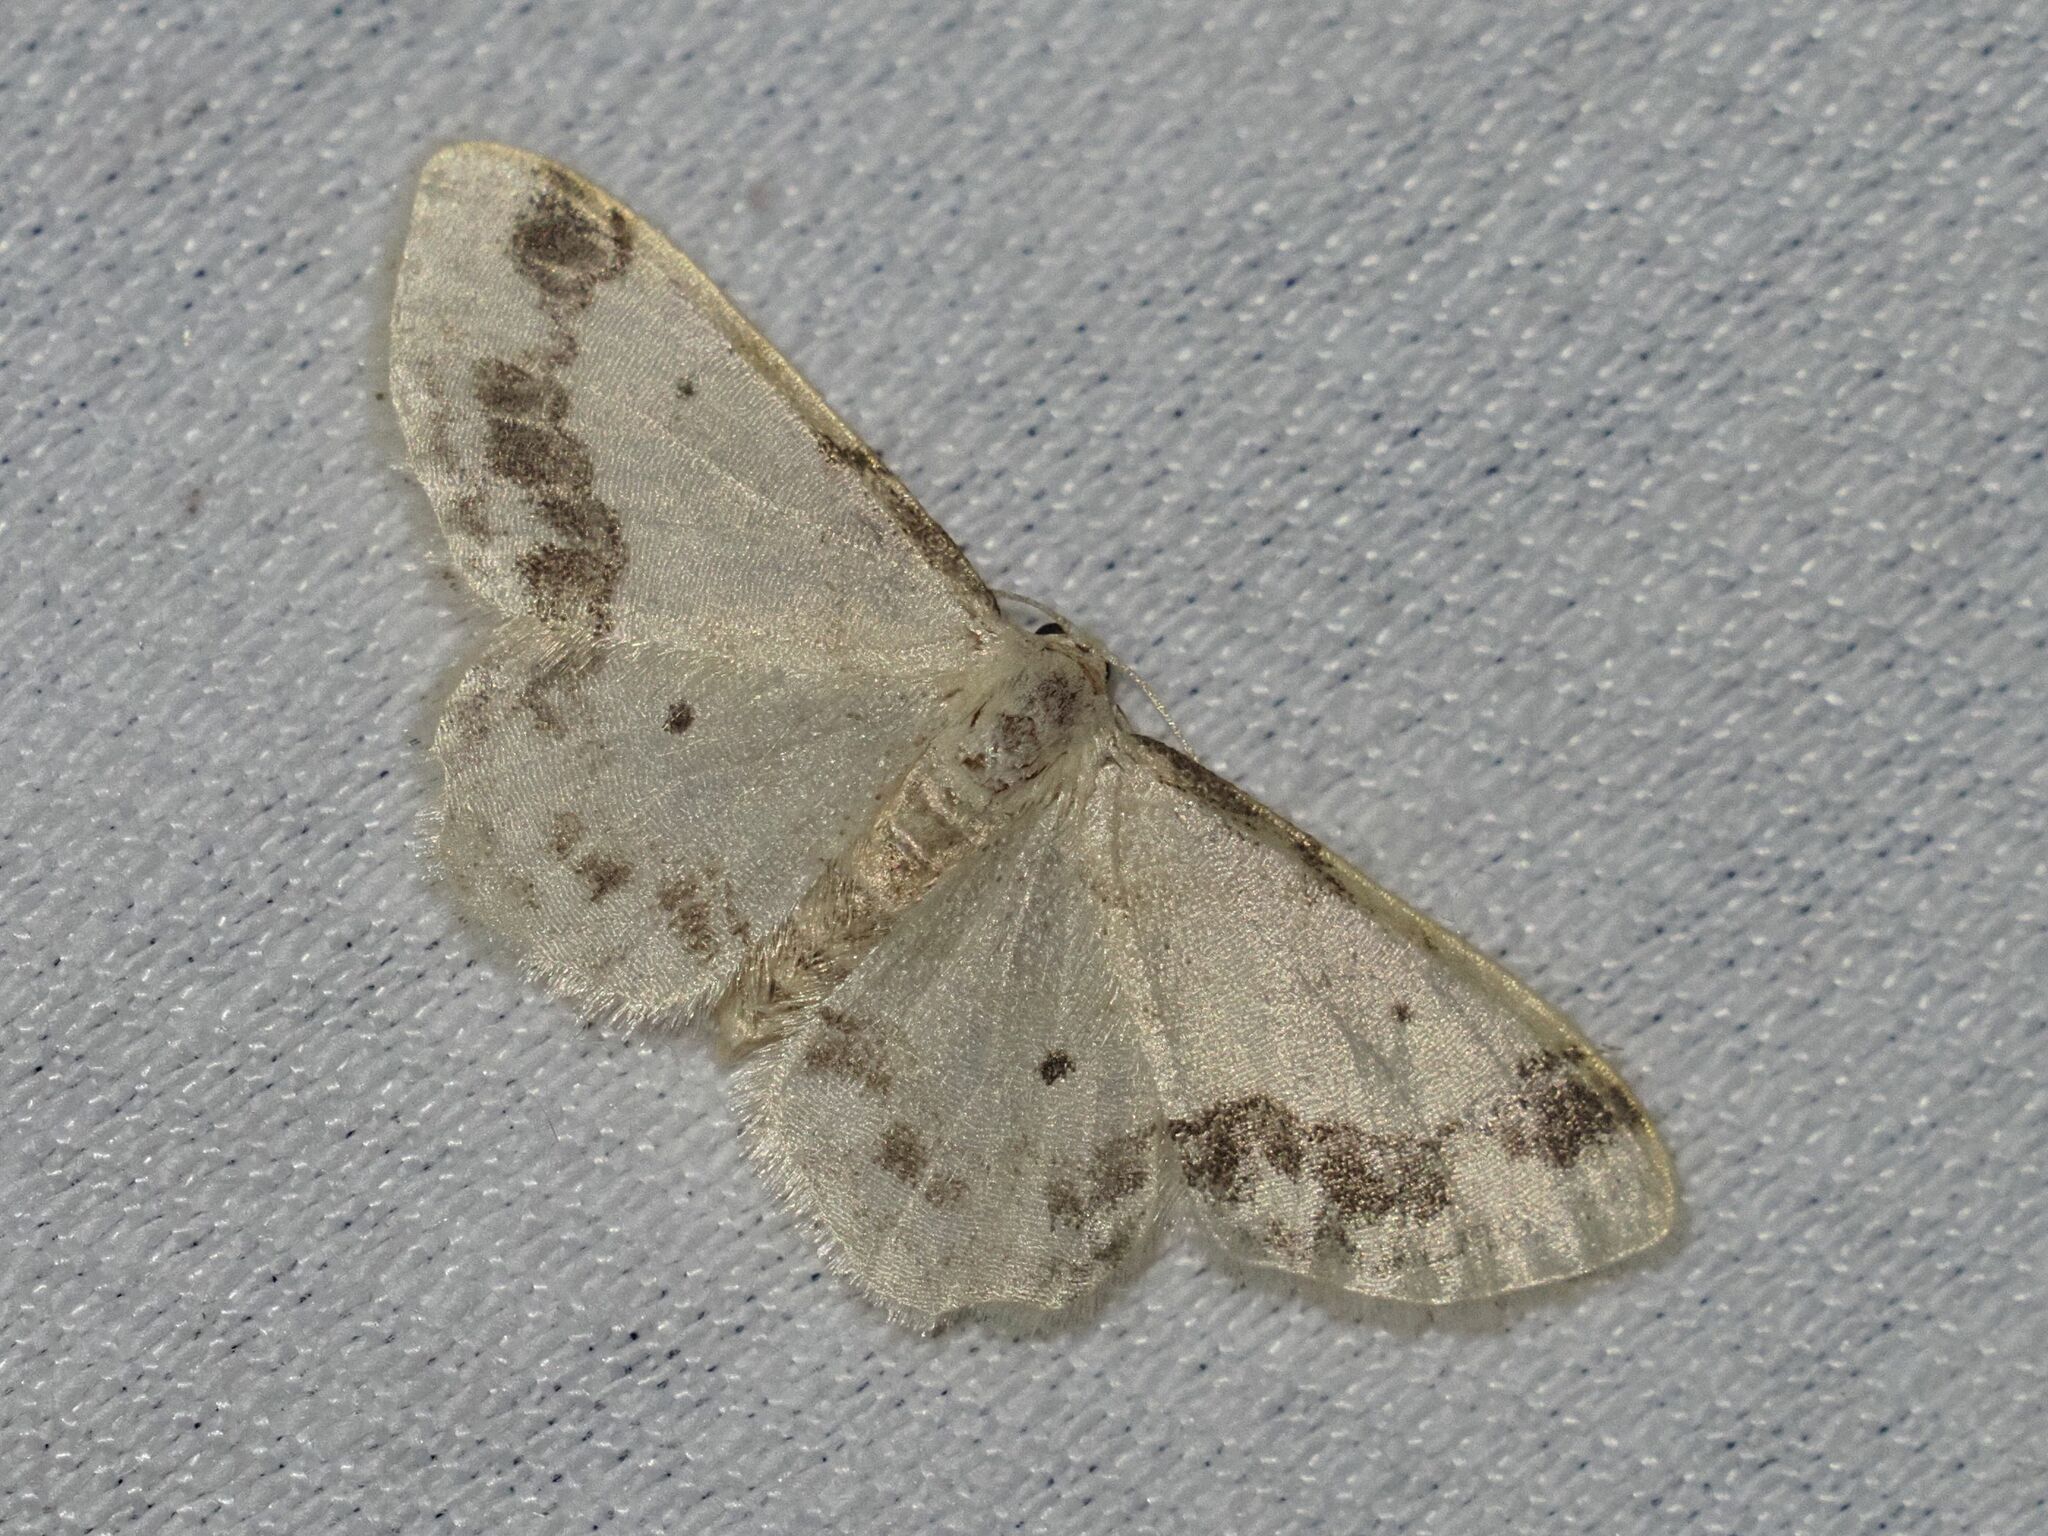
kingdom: Animalia
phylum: Arthropoda
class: Insecta
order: Lepidoptera
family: Geometridae
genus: Idaea
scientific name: Idaea trigeminata
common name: Treble brown spot
